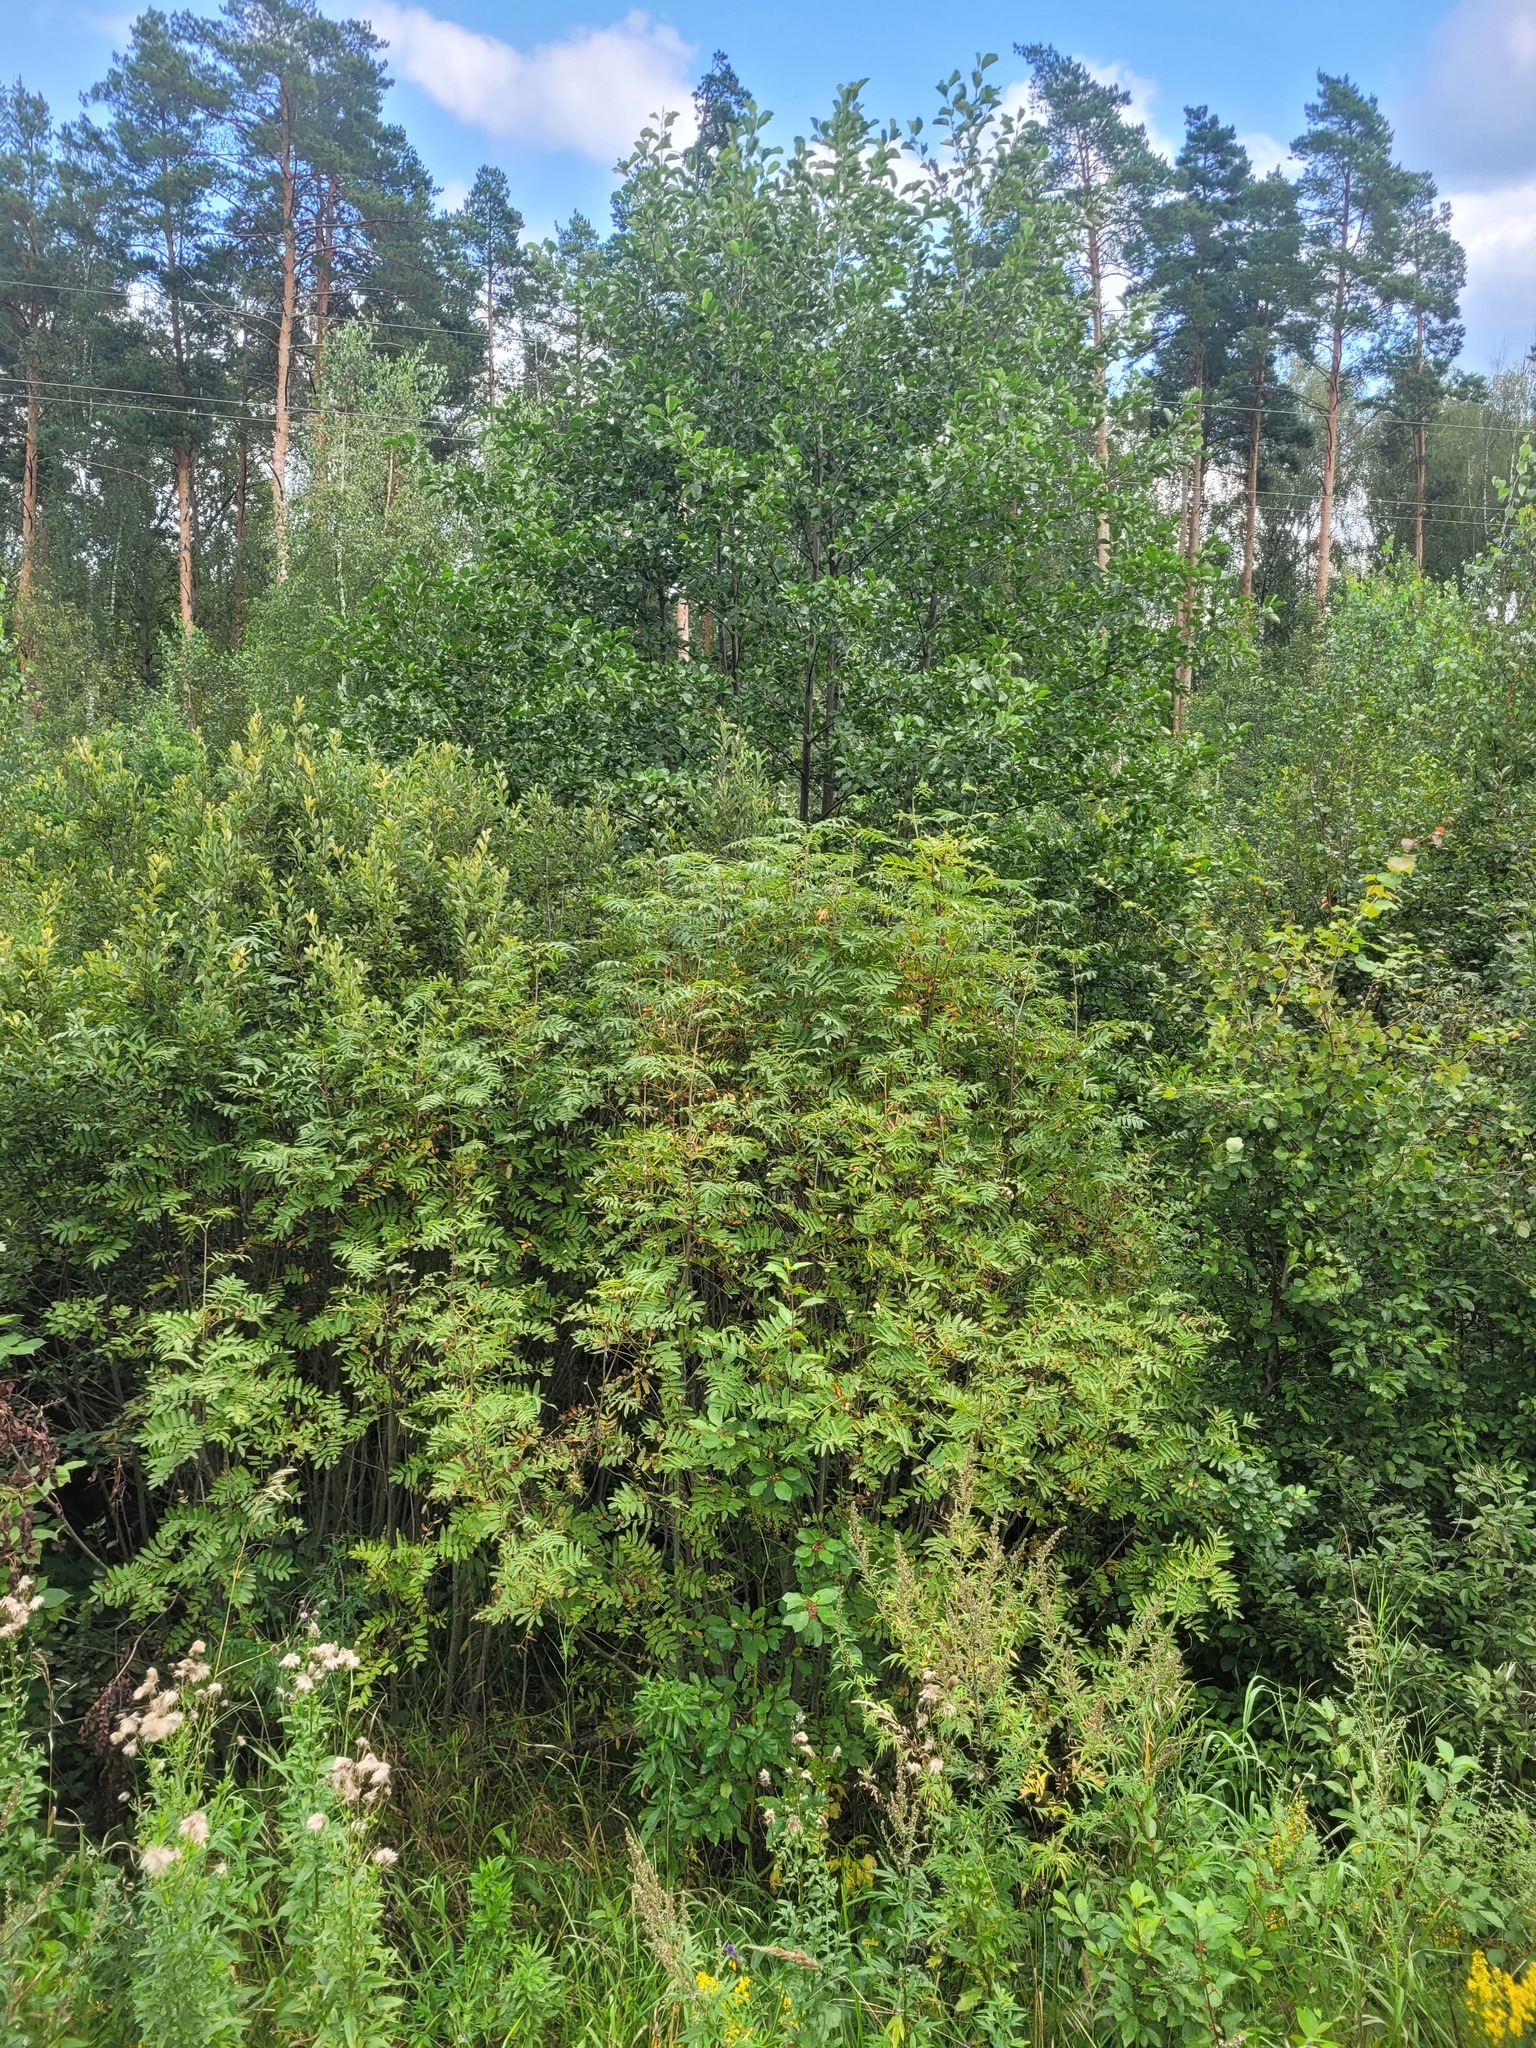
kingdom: Plantae
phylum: Tracheophyta
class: Magnoliopsida
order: Rosales
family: Rosaceae
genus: Sorbus
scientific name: Sorbus aucuparia
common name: Rowan
